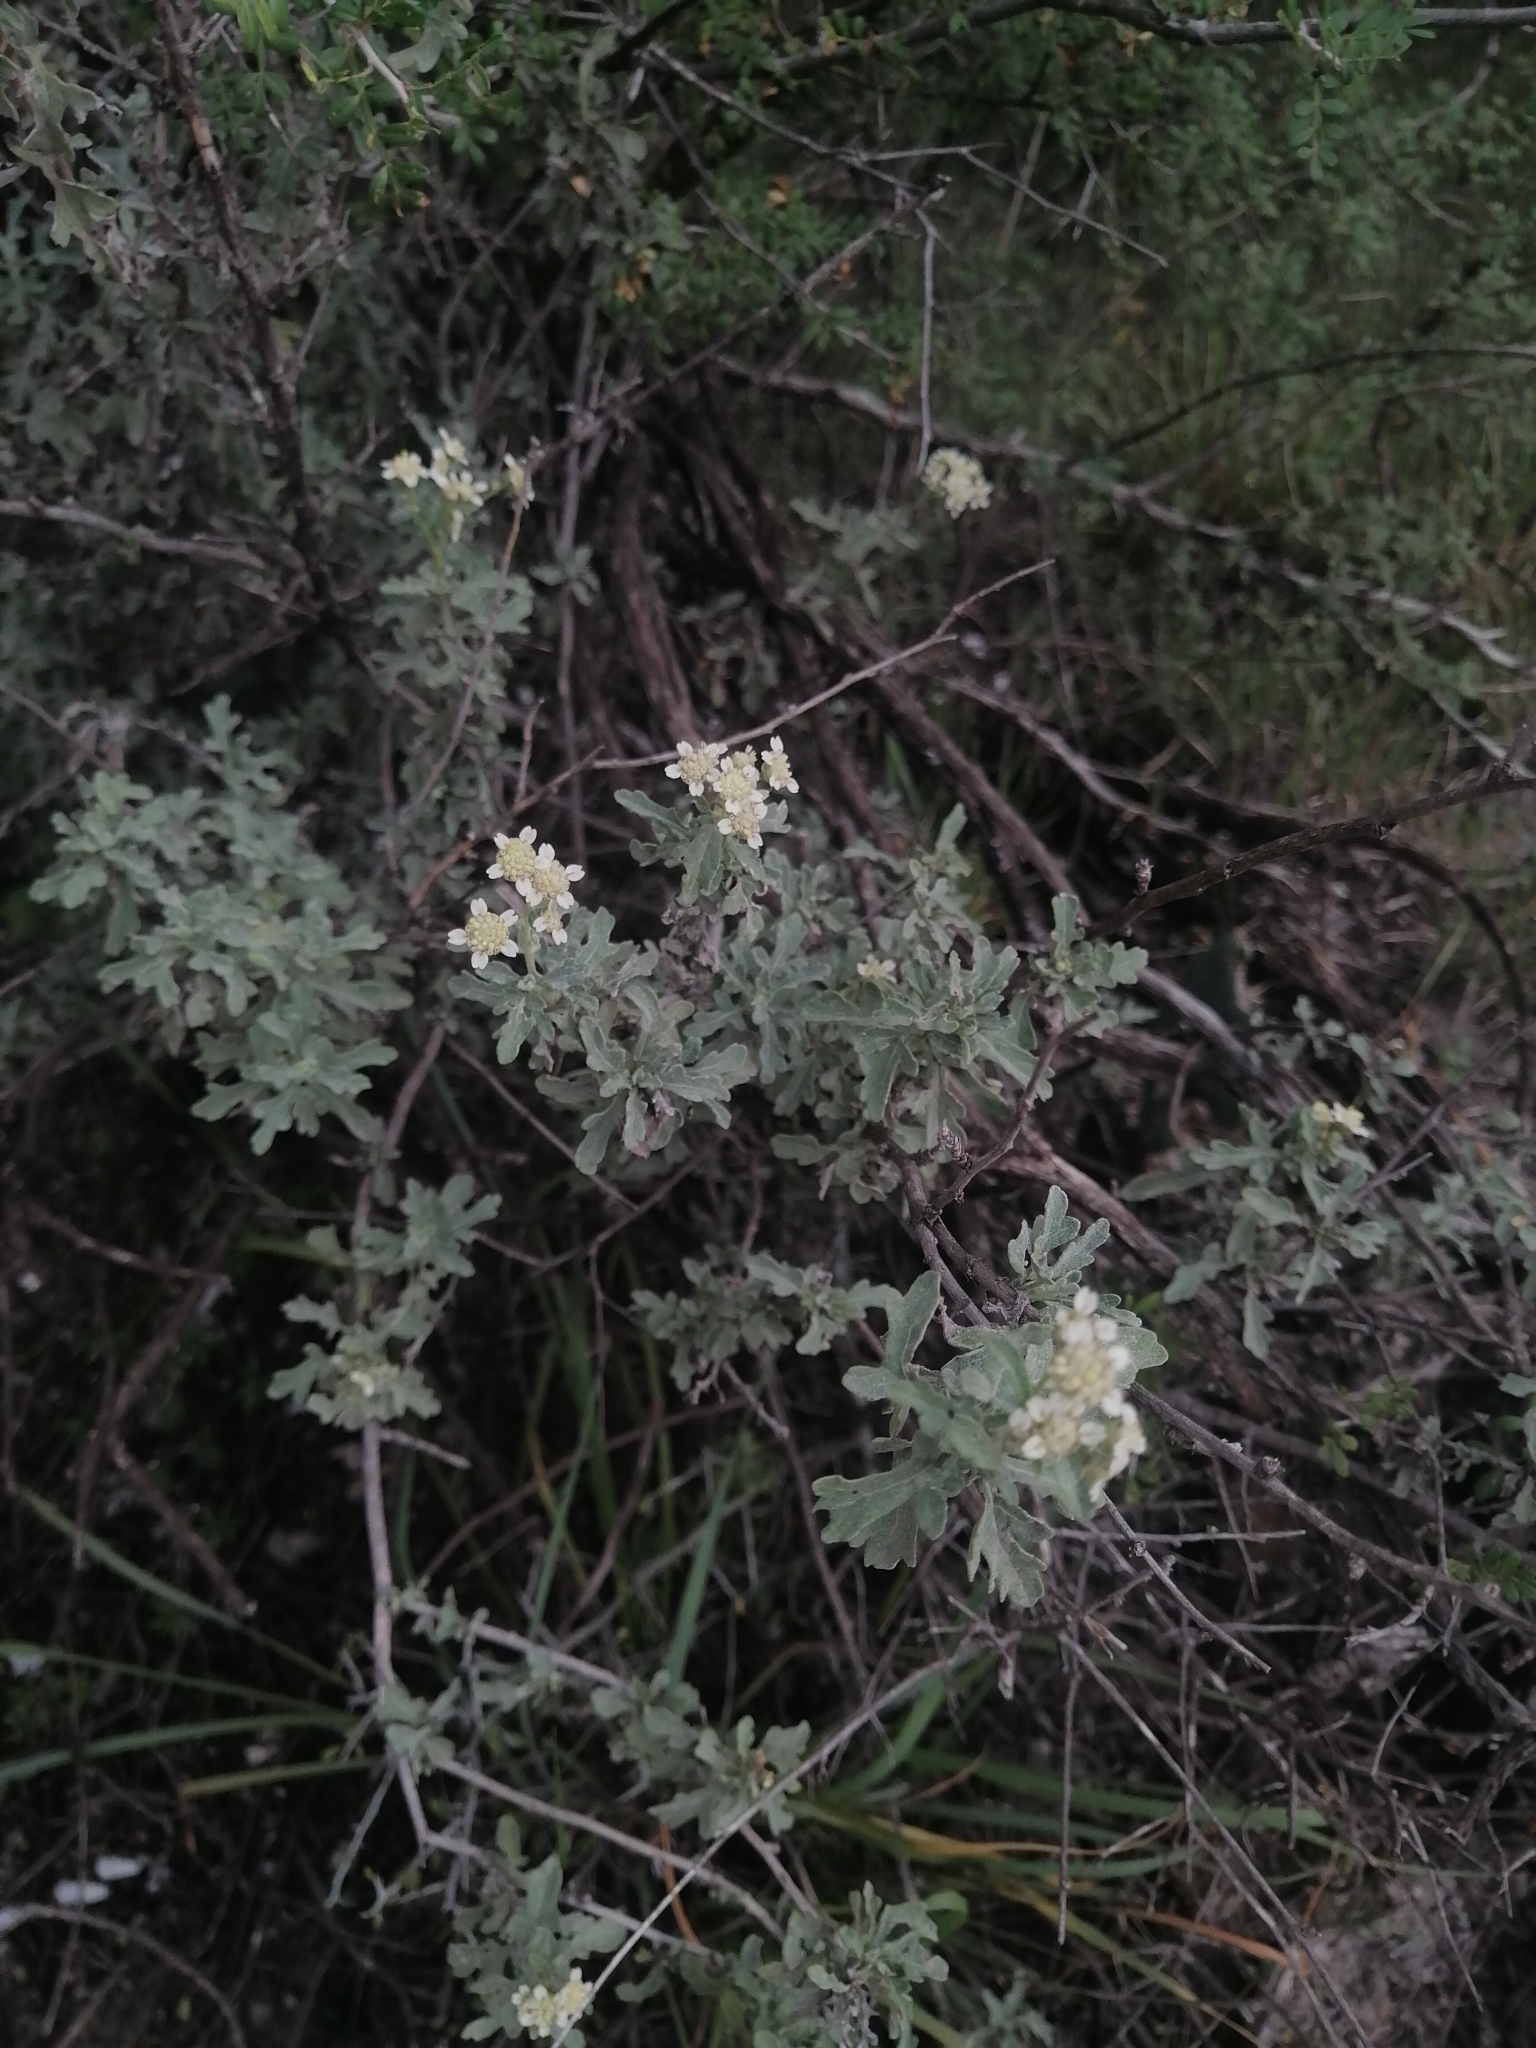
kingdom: Plantae
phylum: Tracheophyta
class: Magnoliopsida
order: Asterales
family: Asteraceae
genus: Parthenium
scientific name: Parthenium incanum
